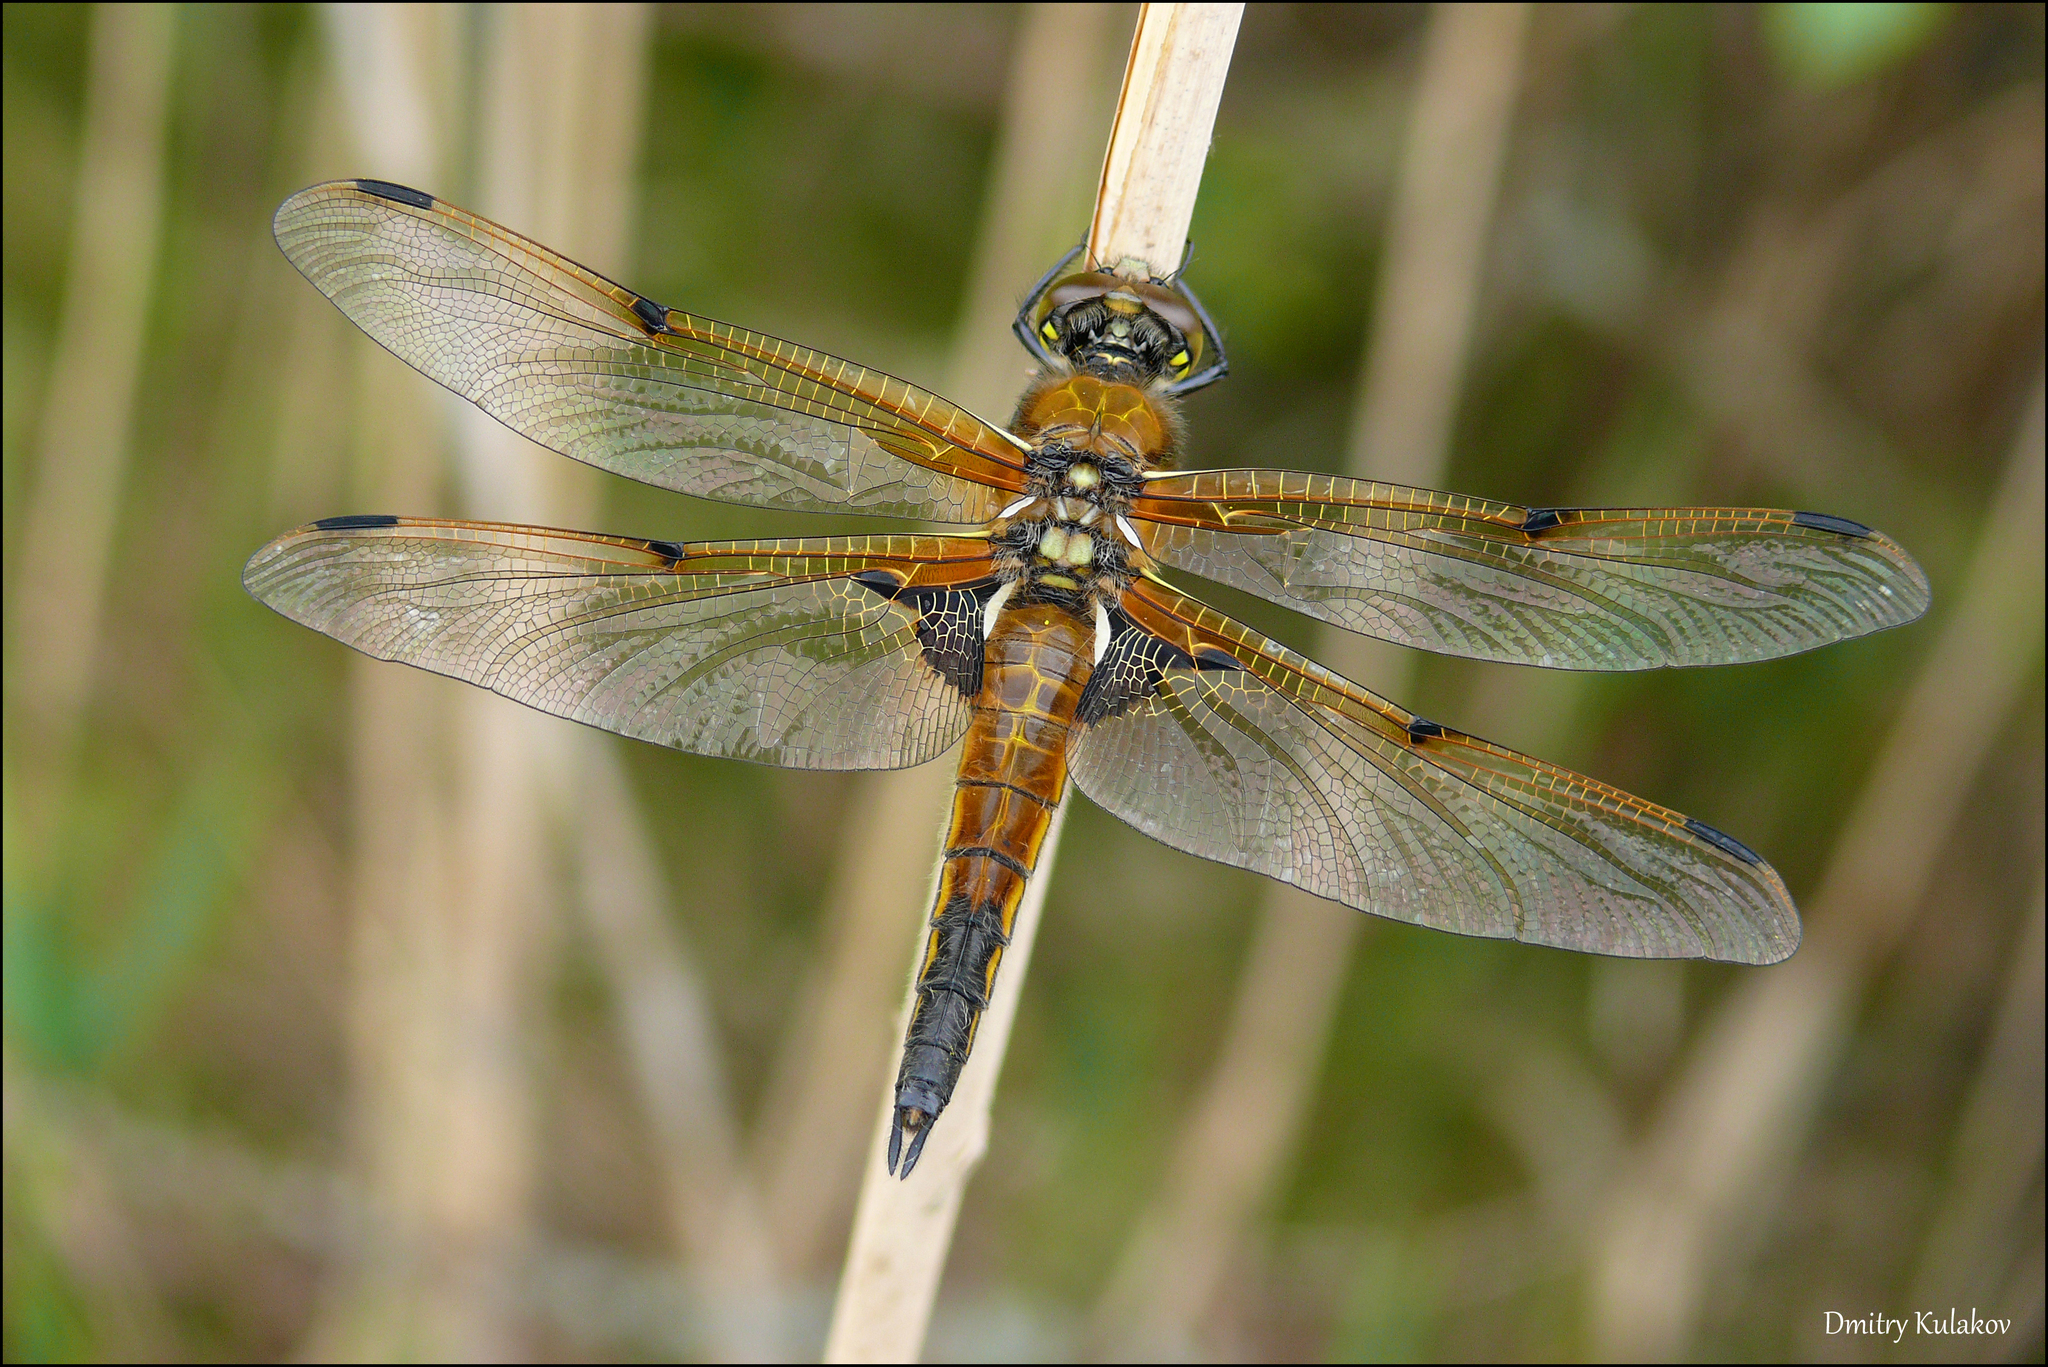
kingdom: Animalia
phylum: Arthropoda
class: Insecta
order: Odonata
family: Libellulidae
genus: Libellula
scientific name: Libellula quadrimaculata
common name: Four-spotted chaser
